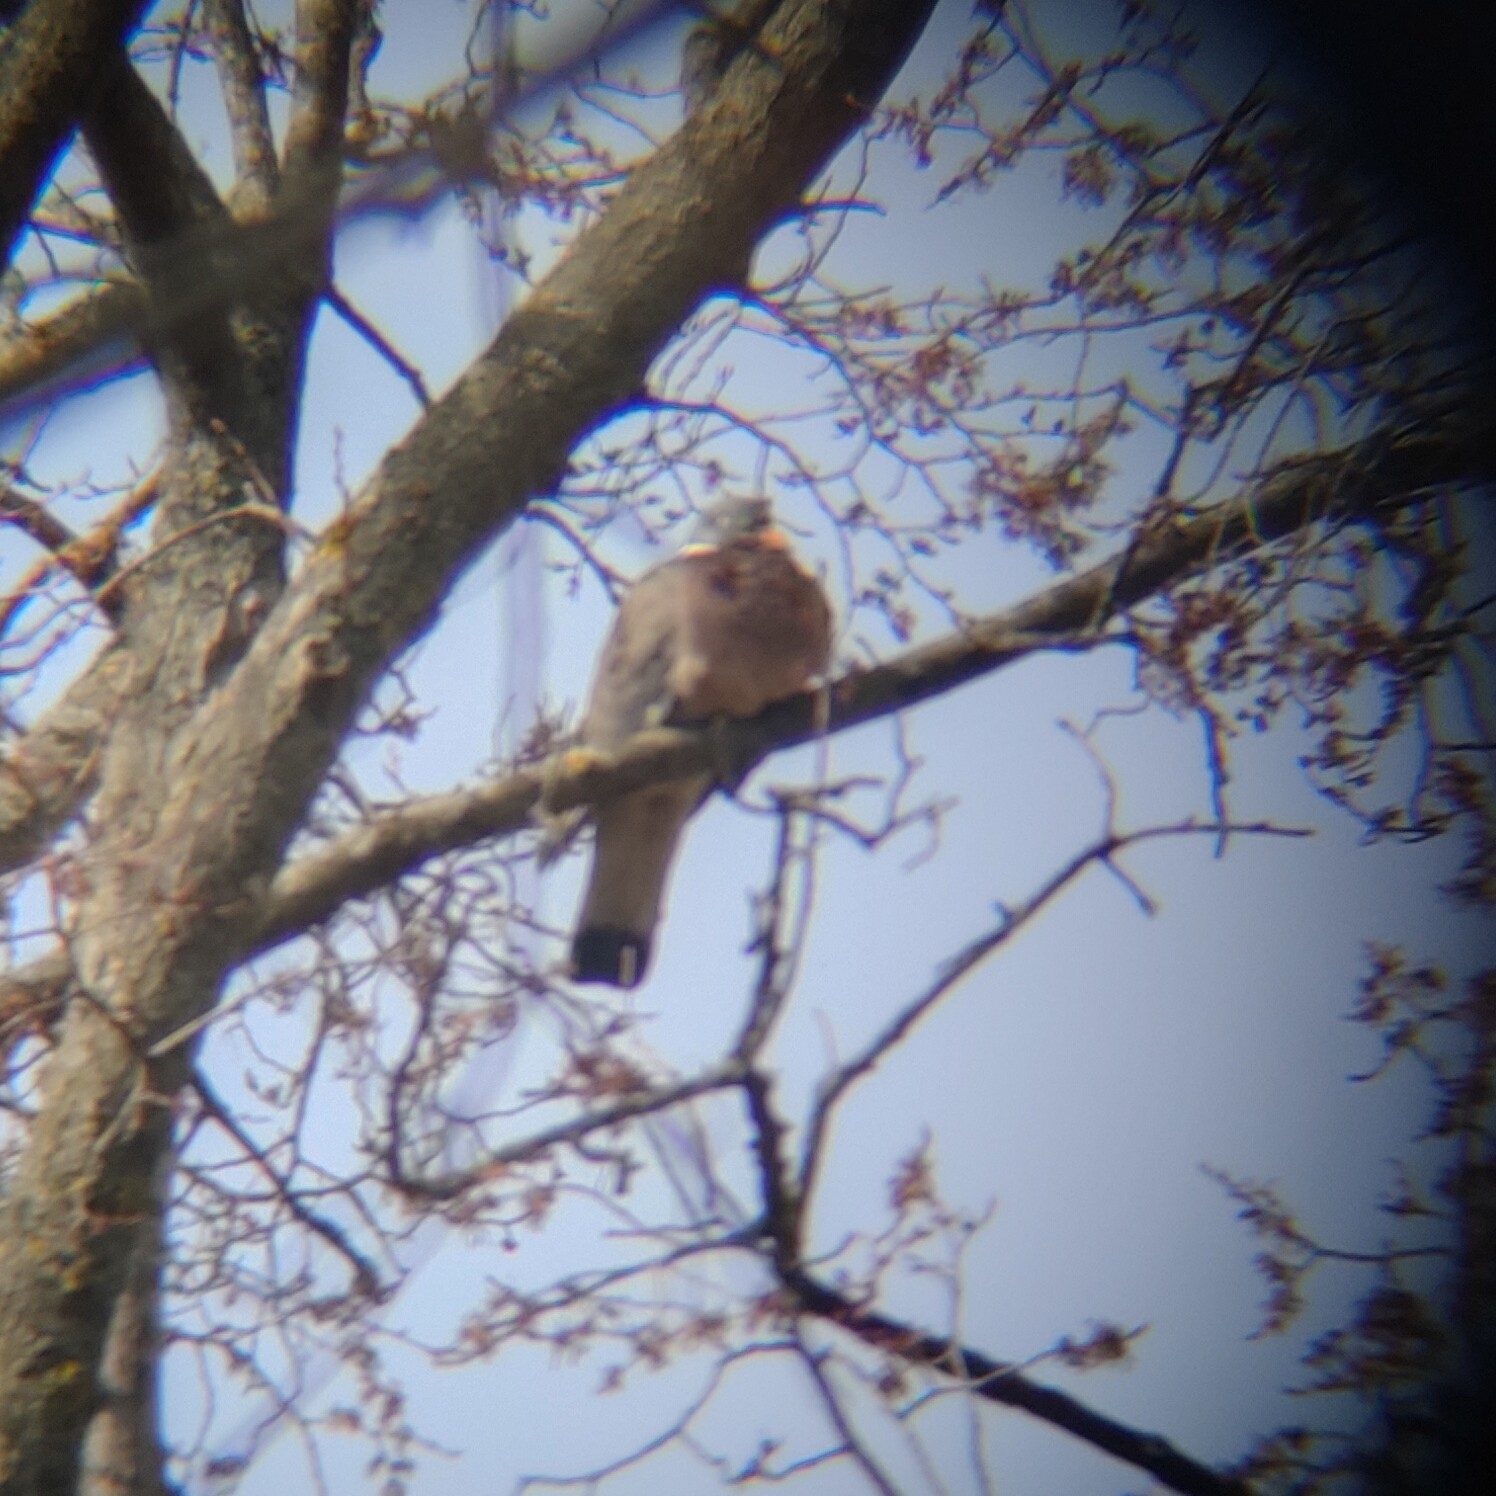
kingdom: Animalia
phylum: Chordata
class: Aves
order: Columbiformes
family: Columbidae
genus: Columba
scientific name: Columba palumbus
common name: Common wood pigeon
